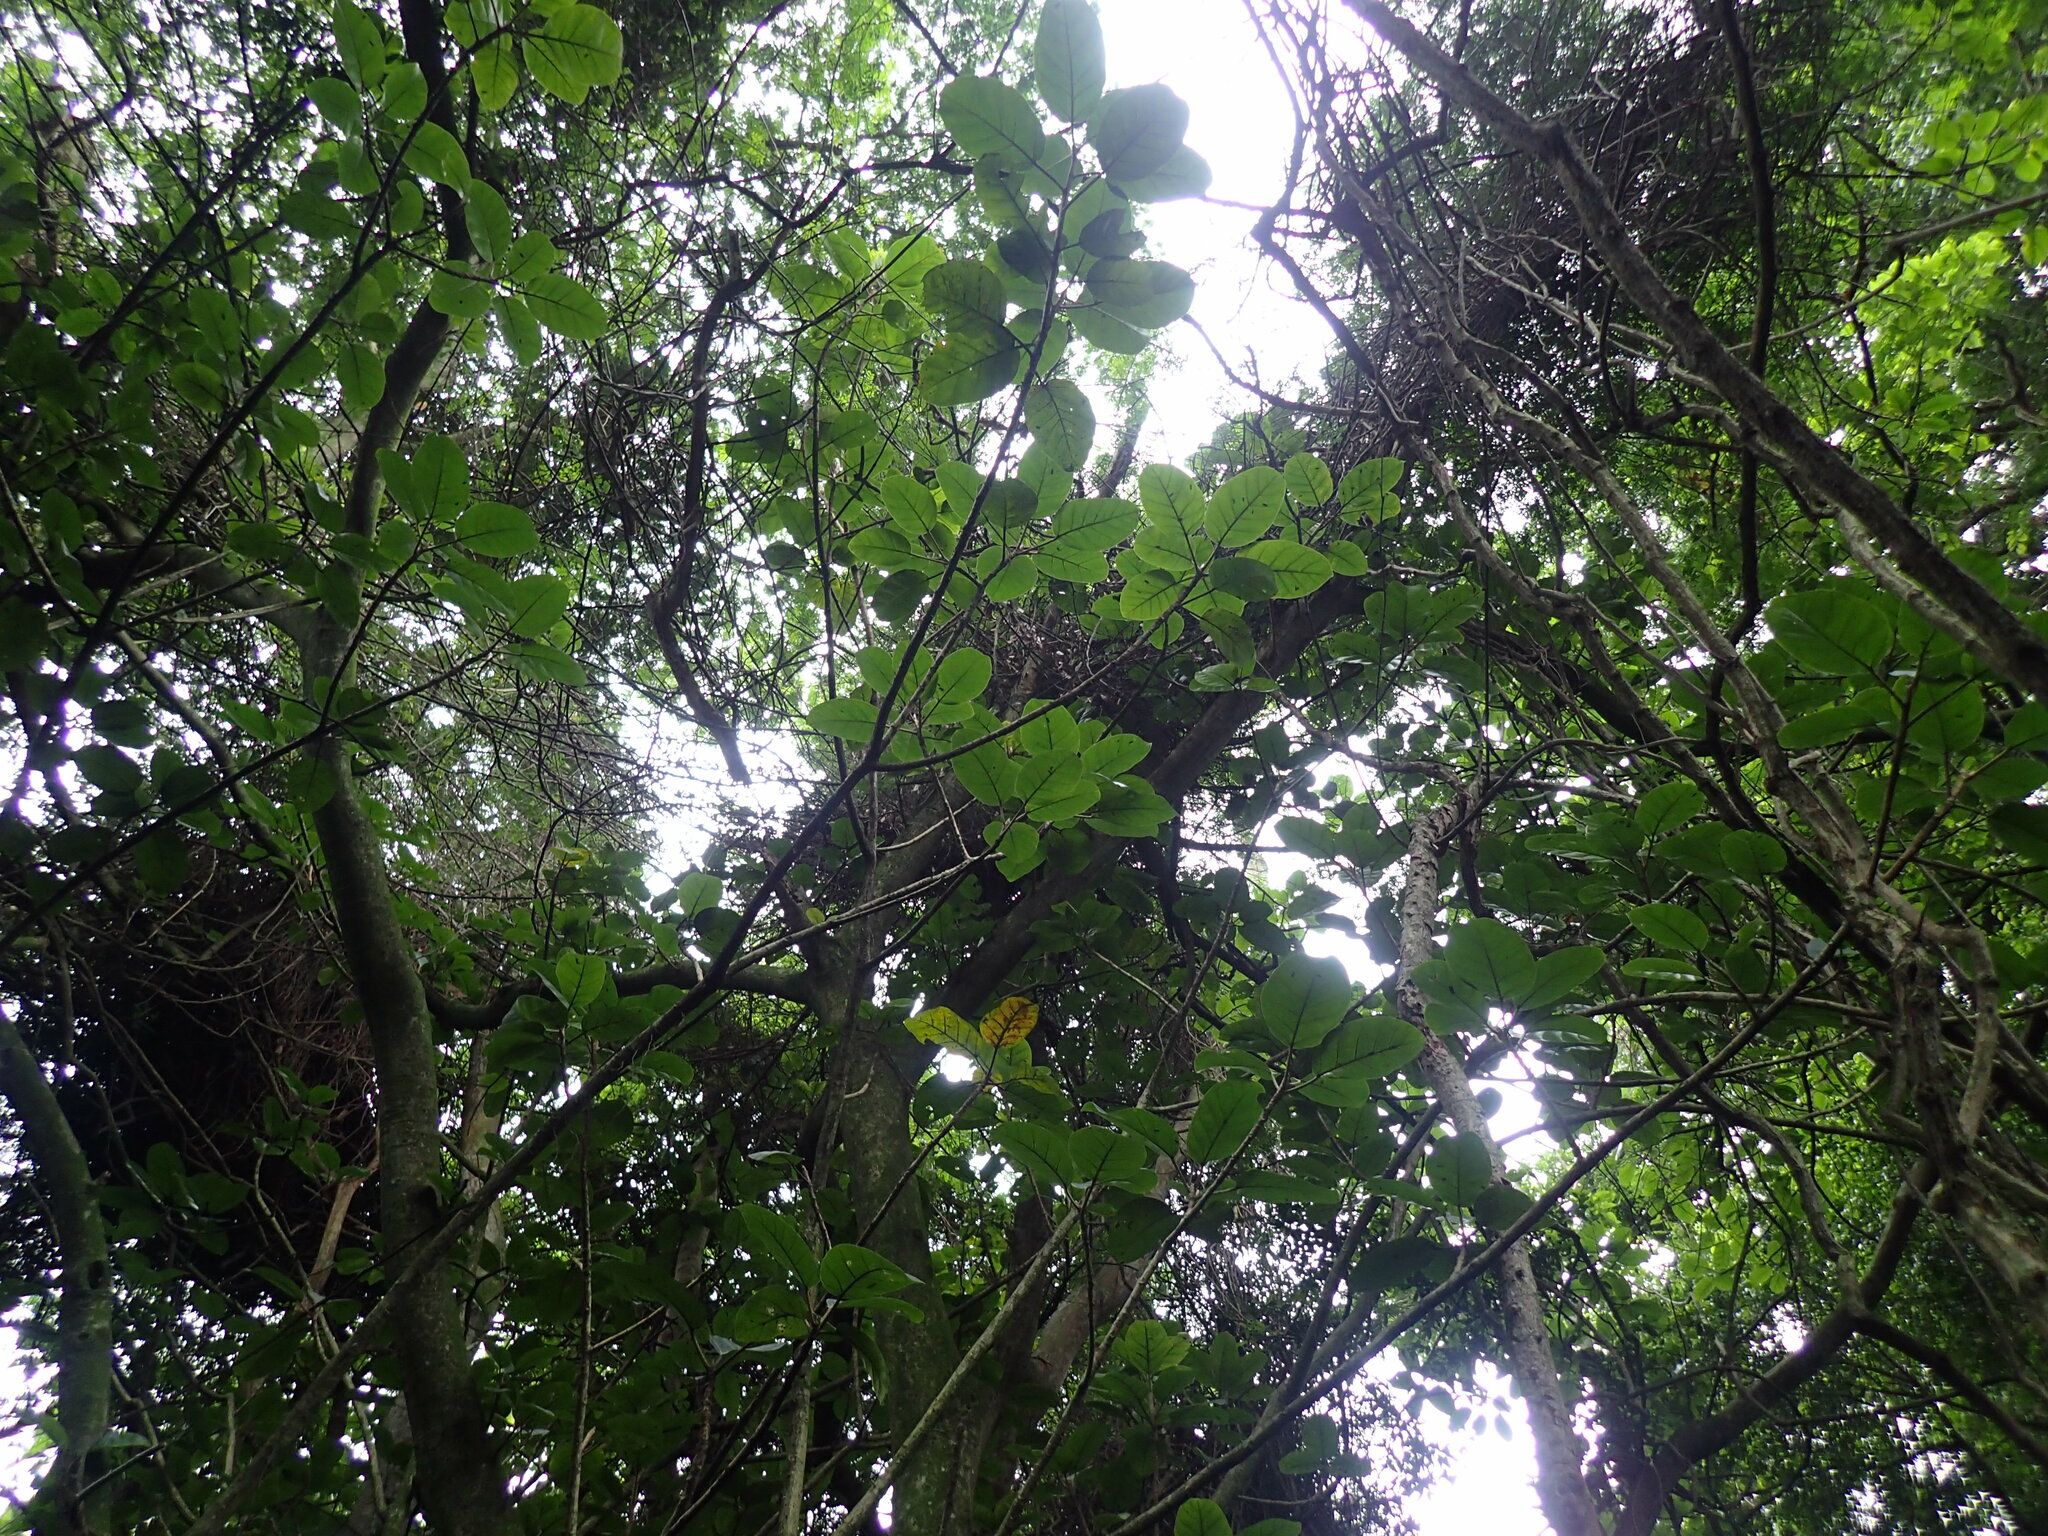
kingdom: Plantae
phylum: Tracheophyta
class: Magnoliopsida
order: Rosales
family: Moraceae
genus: Ficus
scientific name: Ficus lutea
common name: Giant-leaved fig
